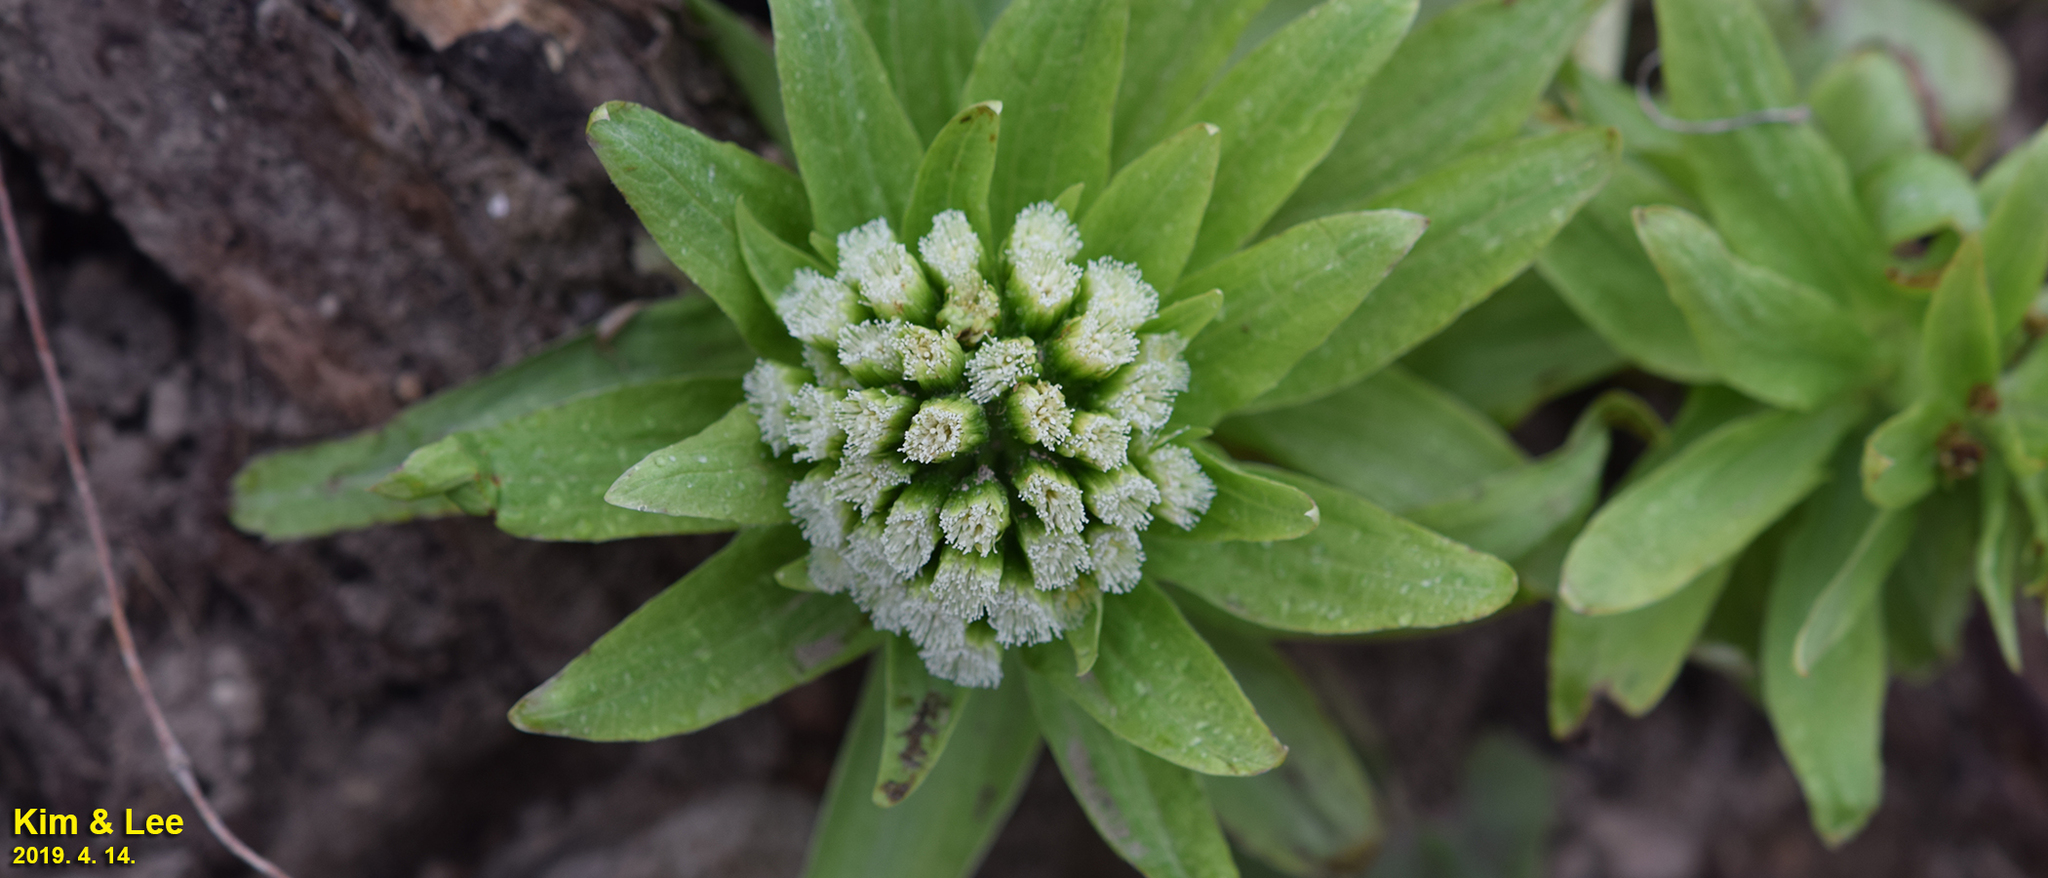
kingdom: Plantae
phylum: Tracheophyta
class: Magnoliopsida
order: Asterales
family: Asteraceae
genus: Petasites
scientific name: Petasites japonicus
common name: Giant butterbur
